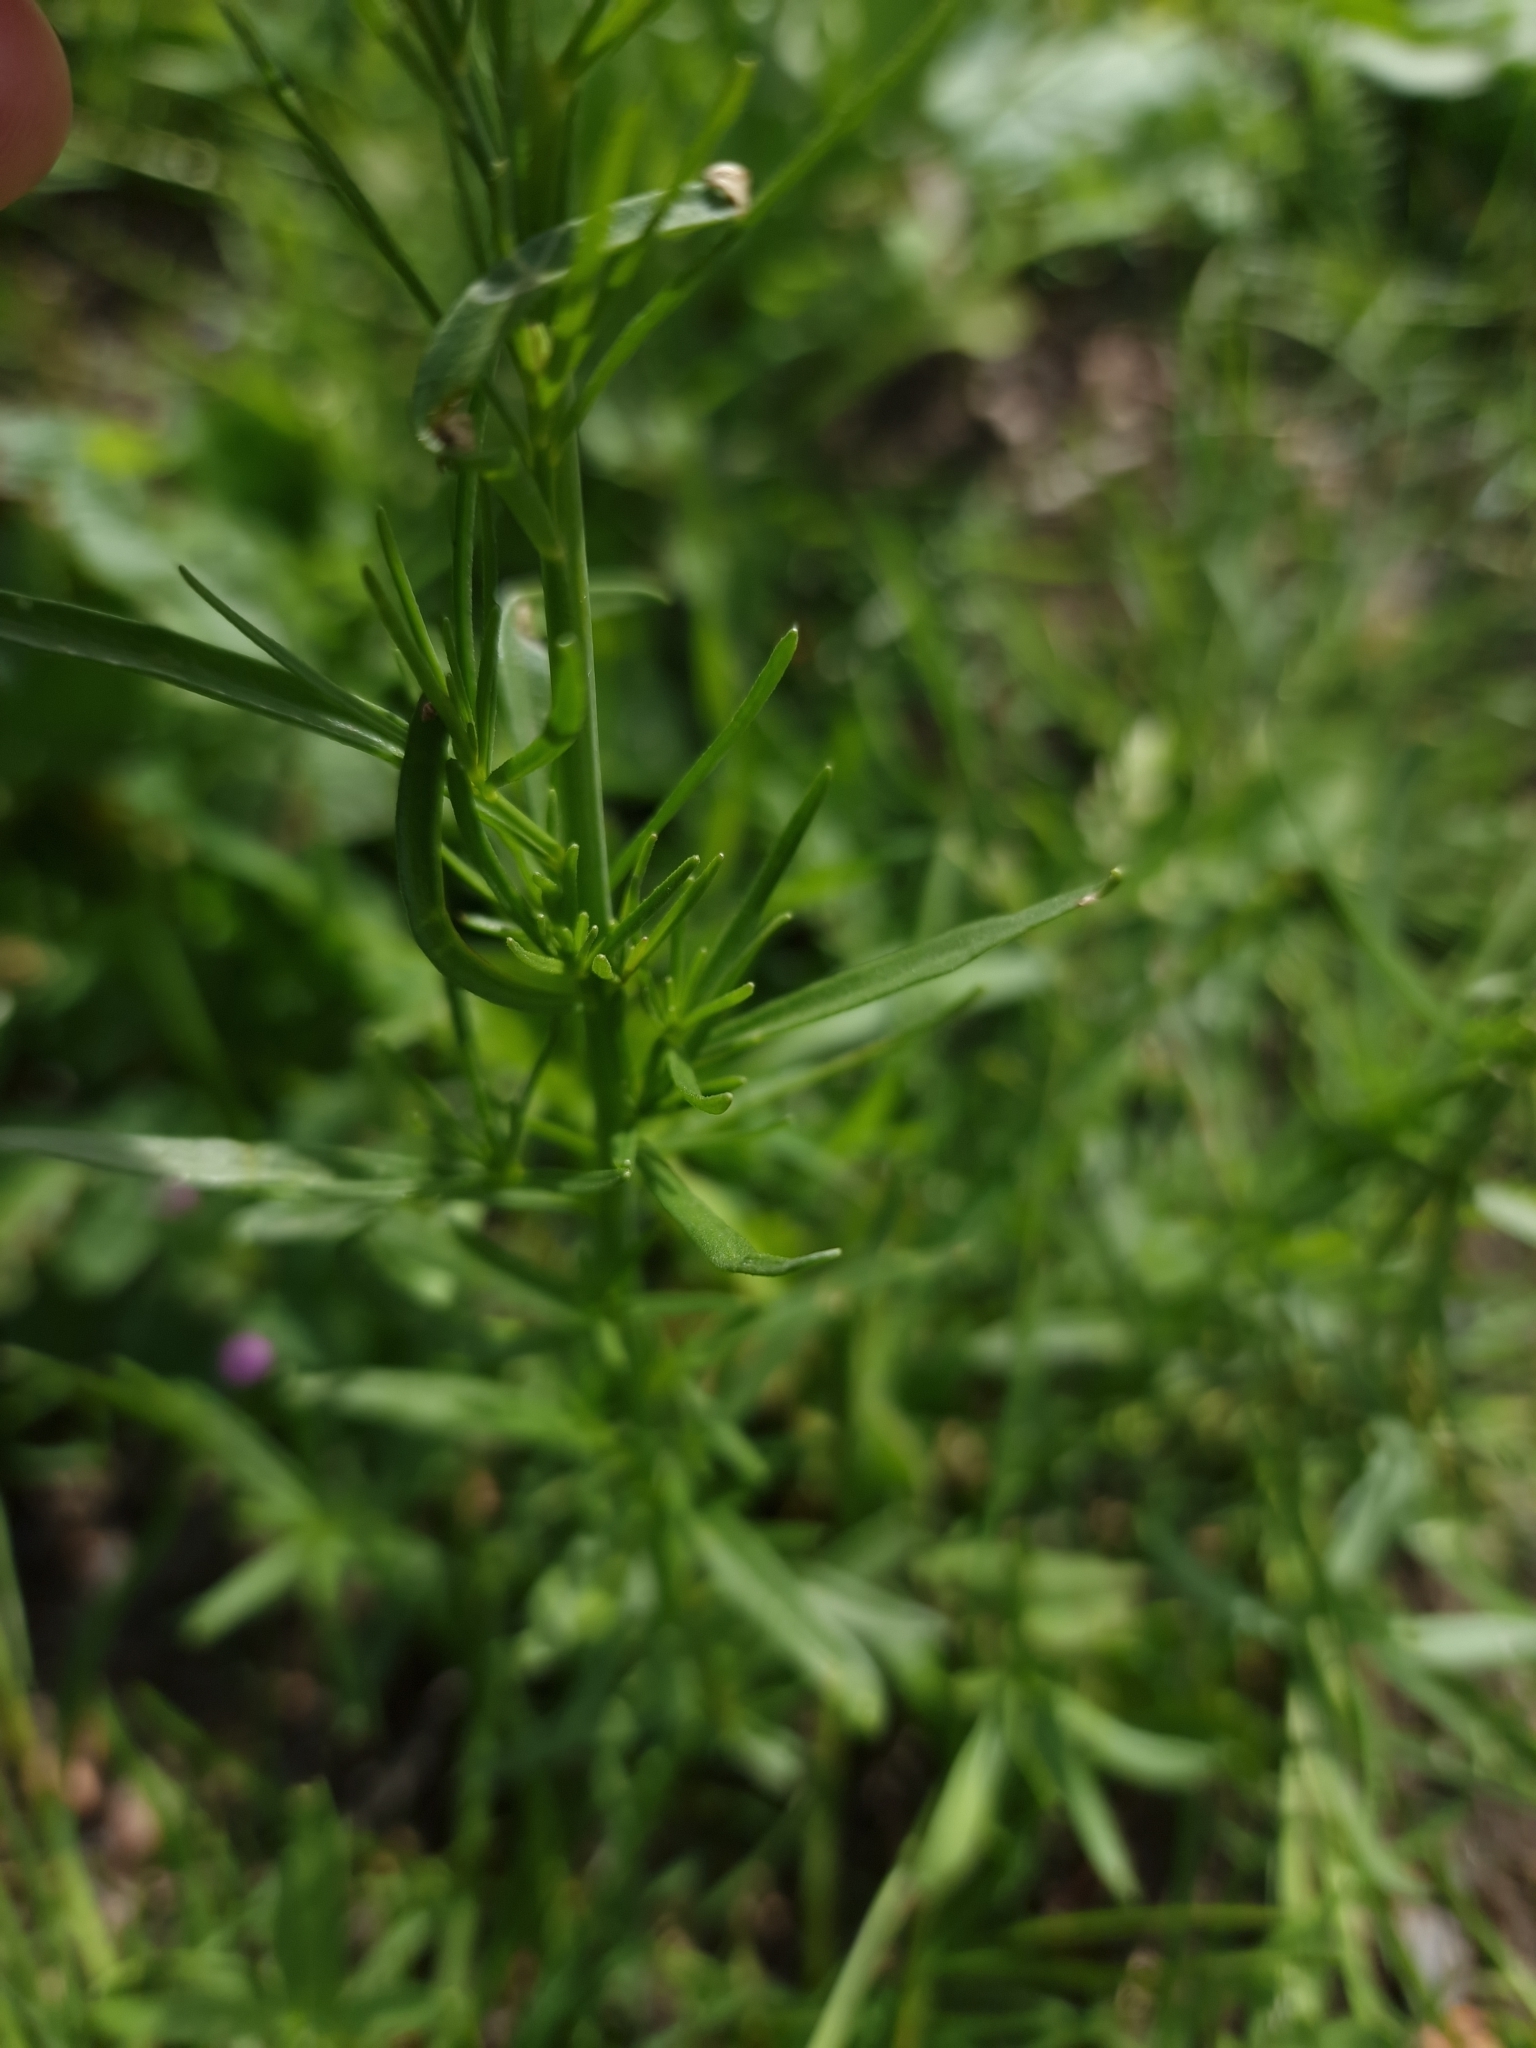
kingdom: Plantae
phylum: Tracheophyta
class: Magnoliopsida
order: Lamiales
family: Plantaginaceae
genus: Linaria
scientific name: Linaria maroccana
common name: Moroccan toadflax
